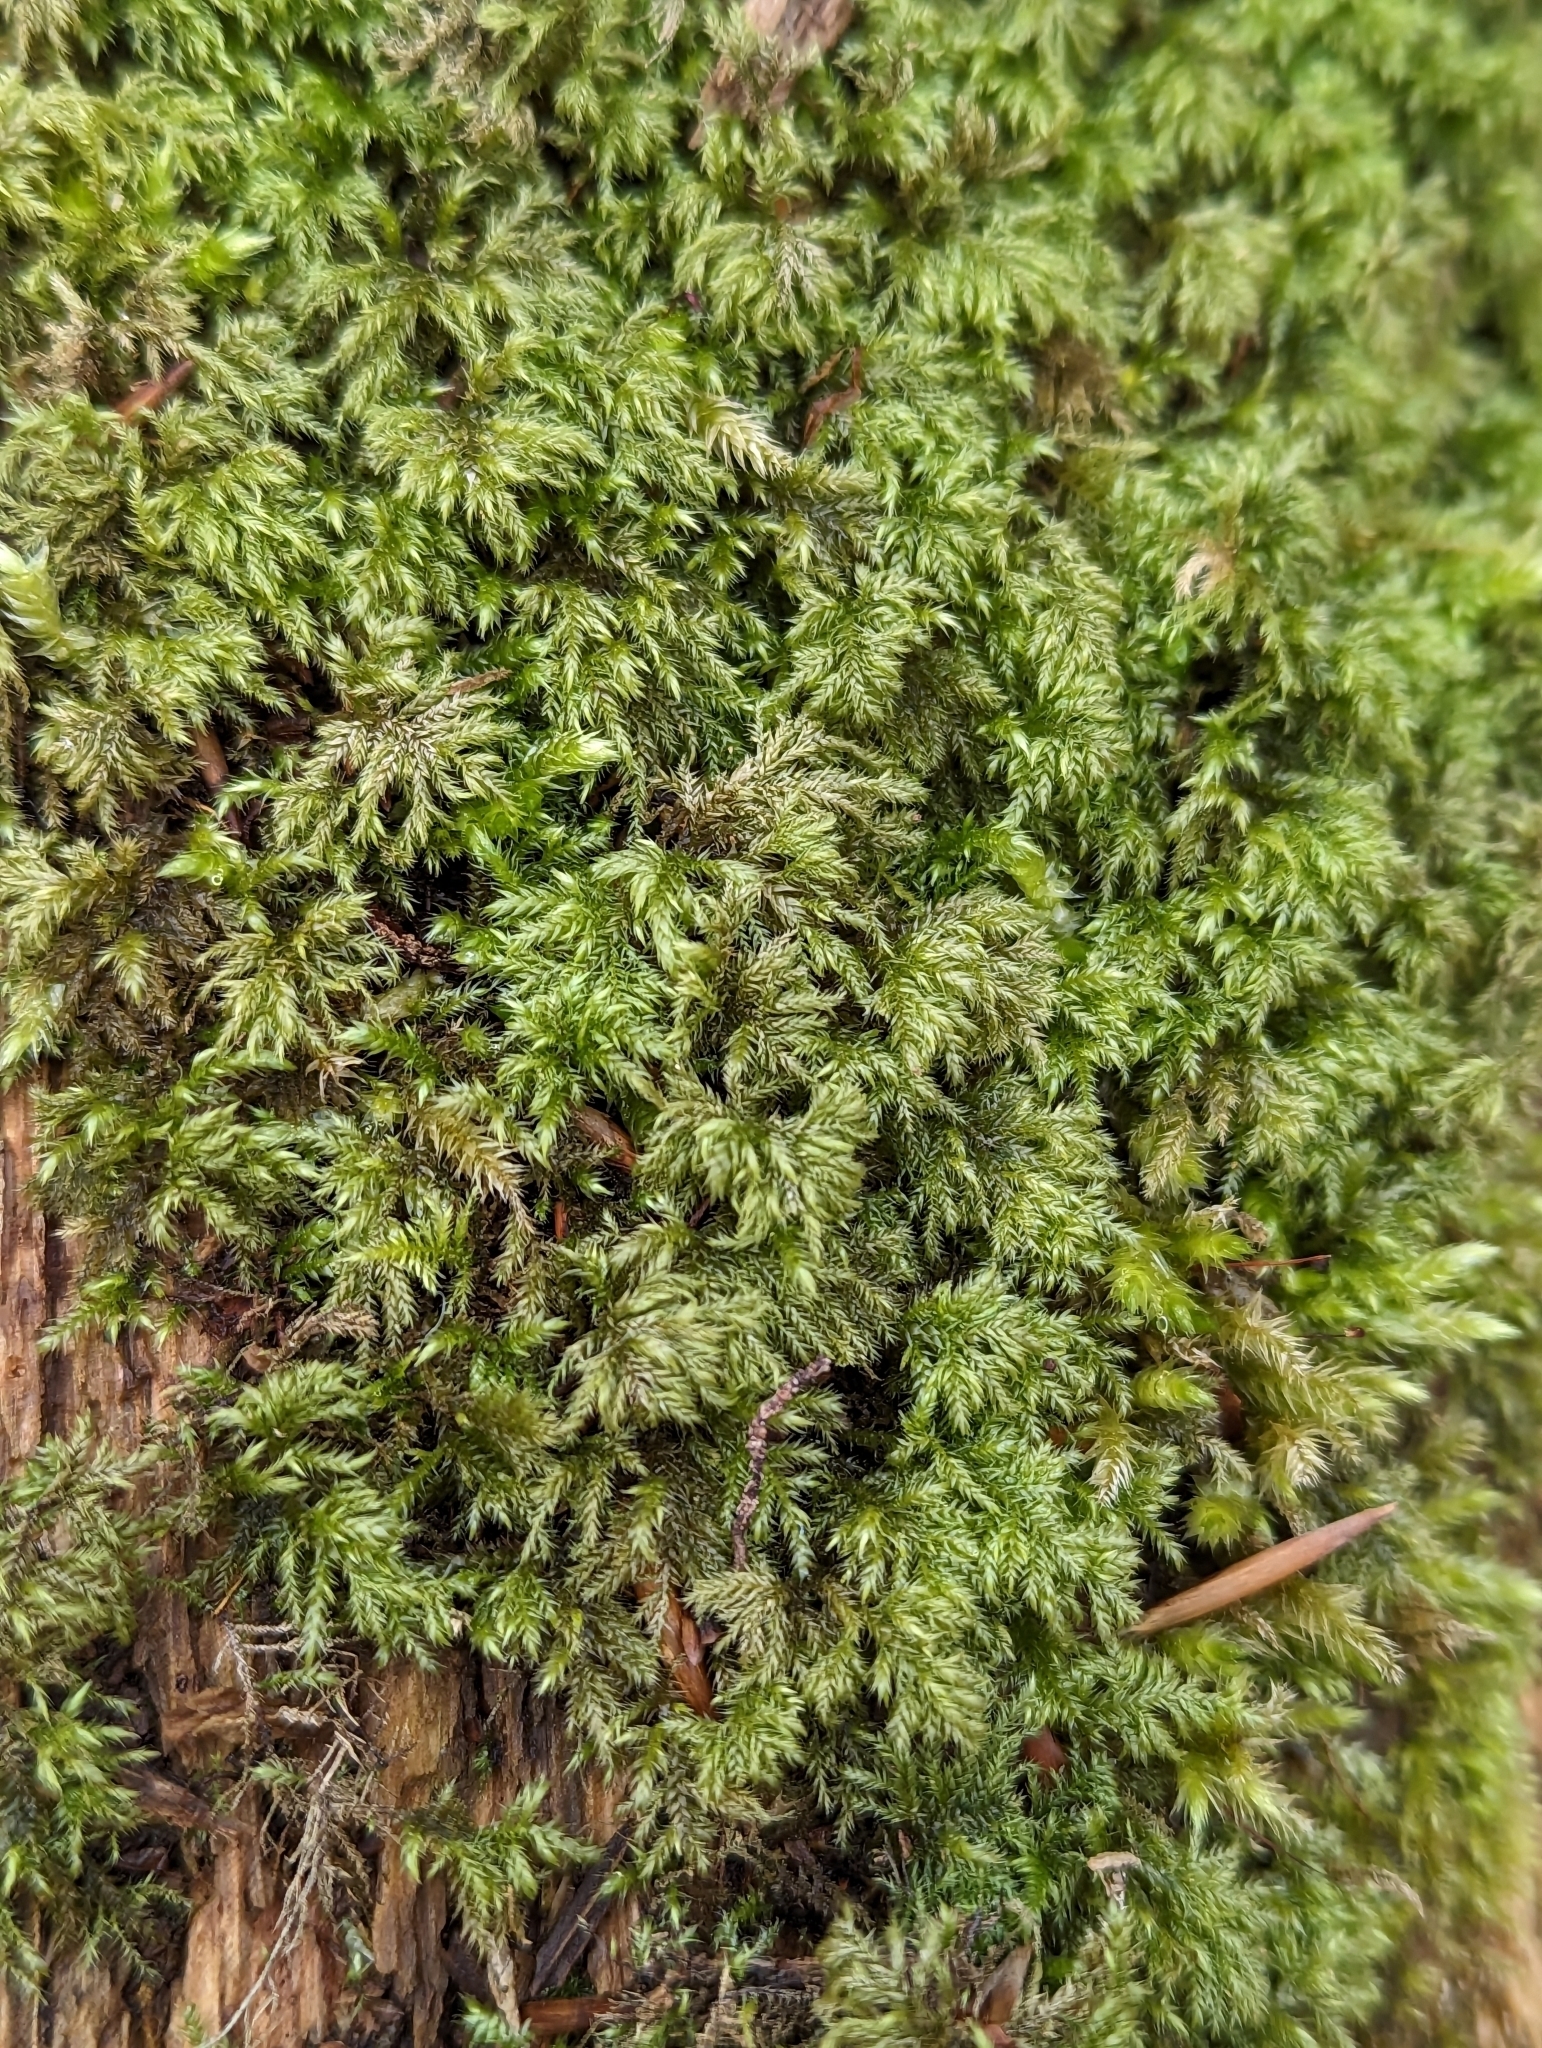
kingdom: Plantae
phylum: Bryophyta
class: Bryopsida
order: Hypnales
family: Lembophyllaceae
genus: Pseudisothecium
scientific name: Pseudisothecium myosuroides
